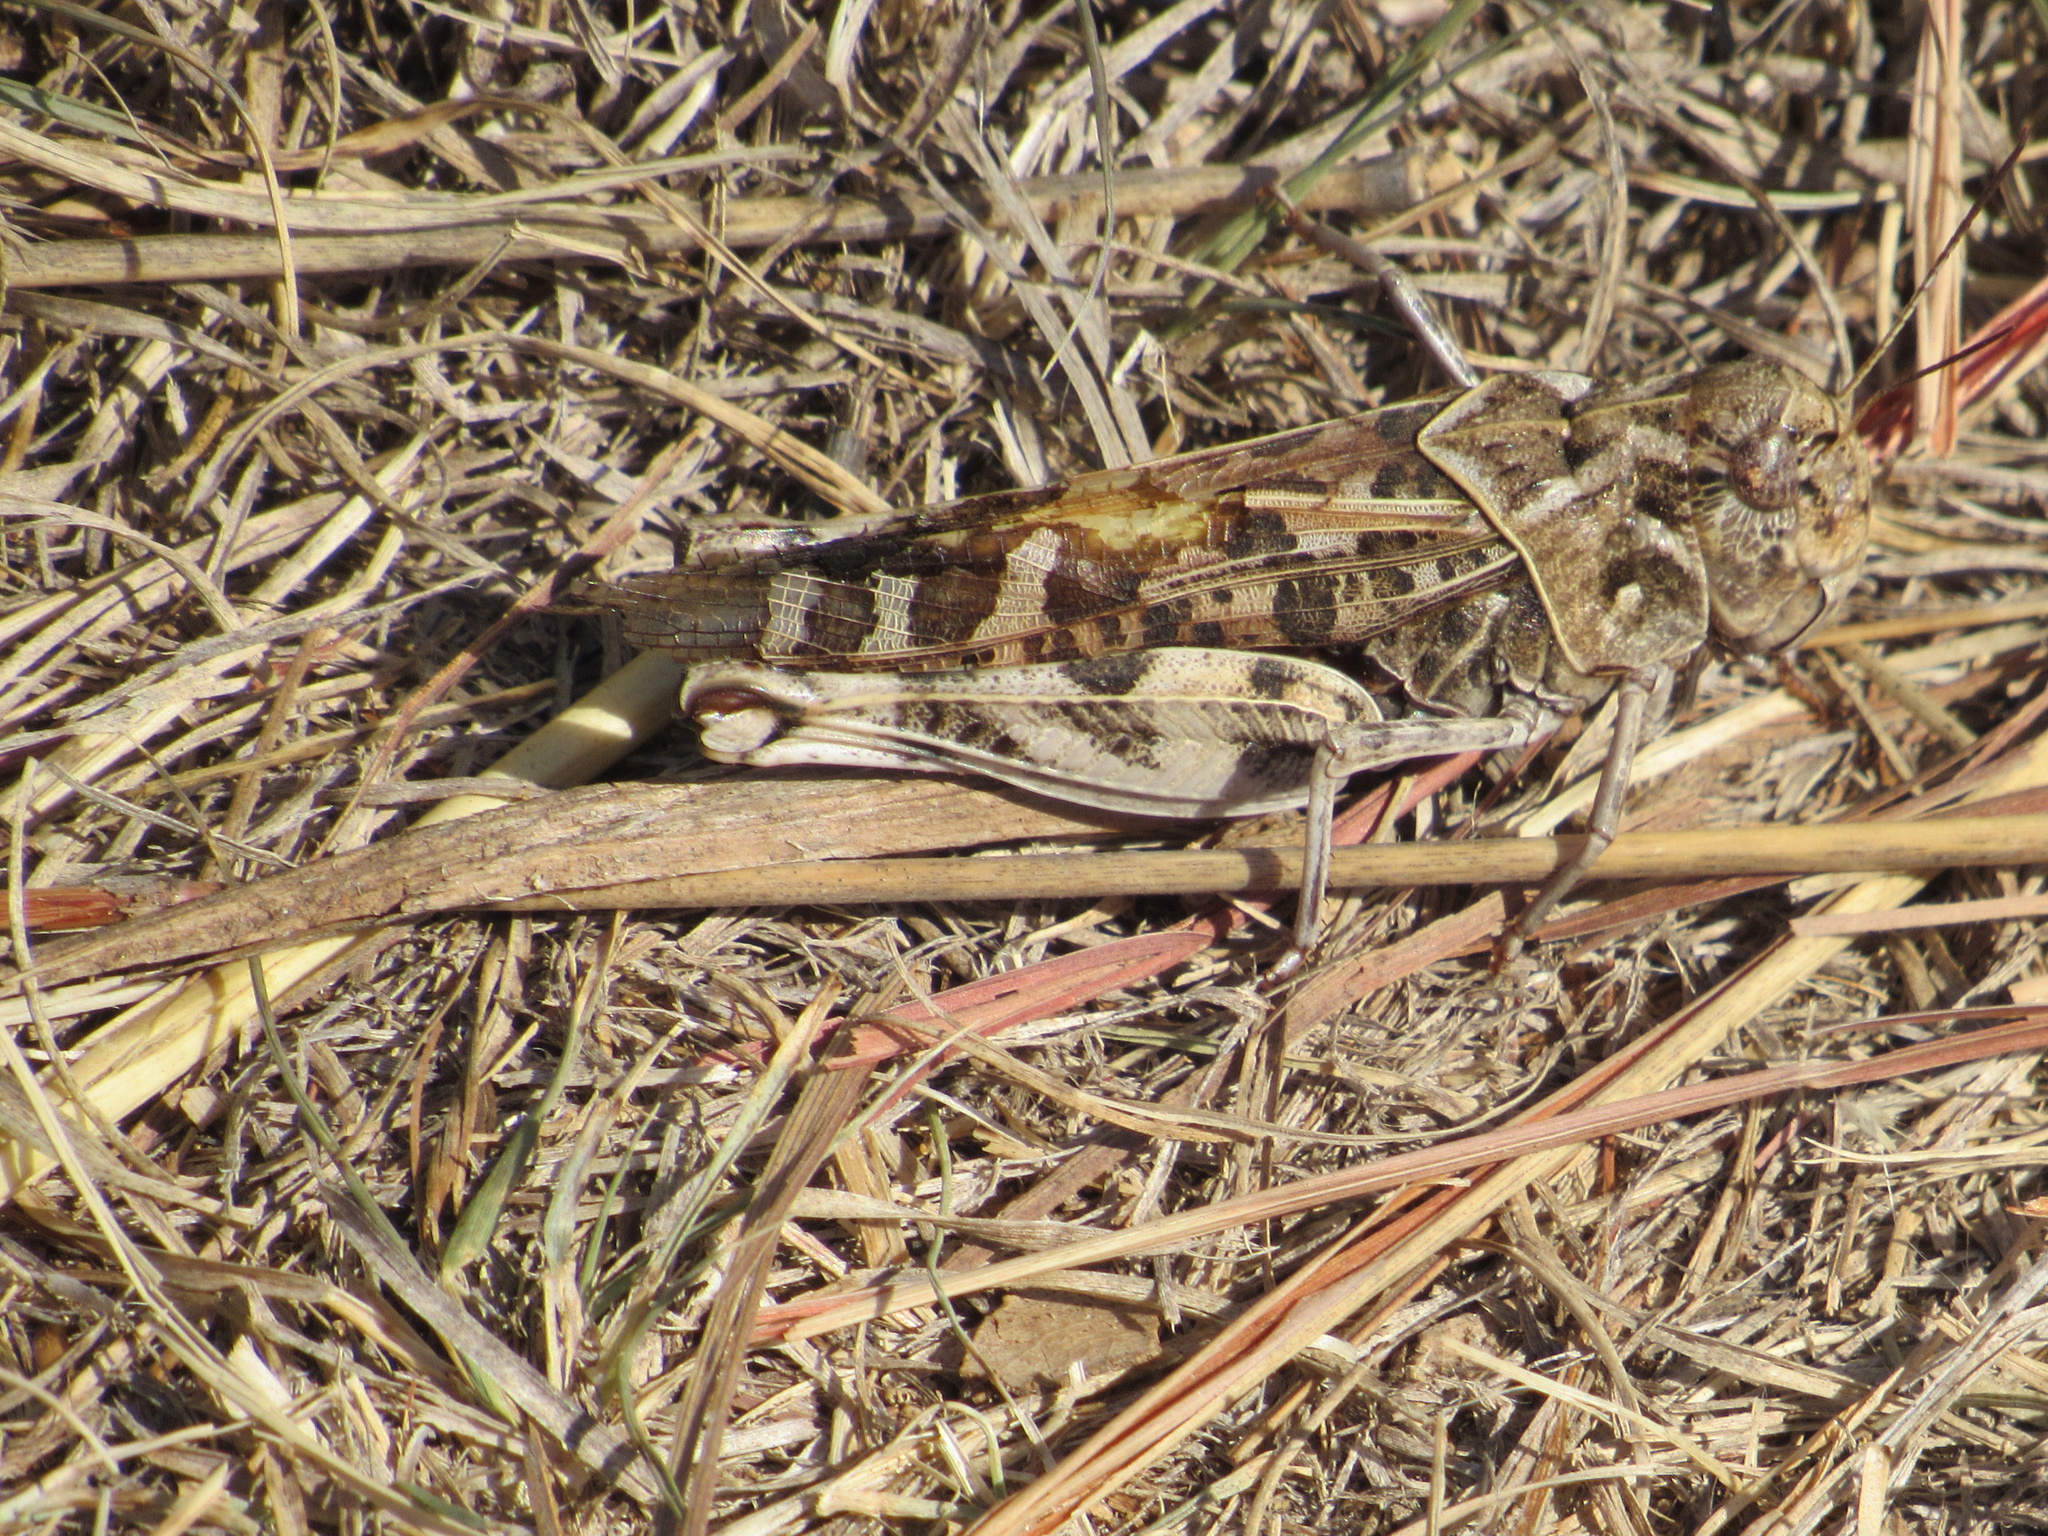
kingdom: Animalia
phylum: Arthropoda
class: Insecta
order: Orthoptera
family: Acrididae
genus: Hippiscus
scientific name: Hippiscus ocelote
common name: Wrinkled grasshopper
